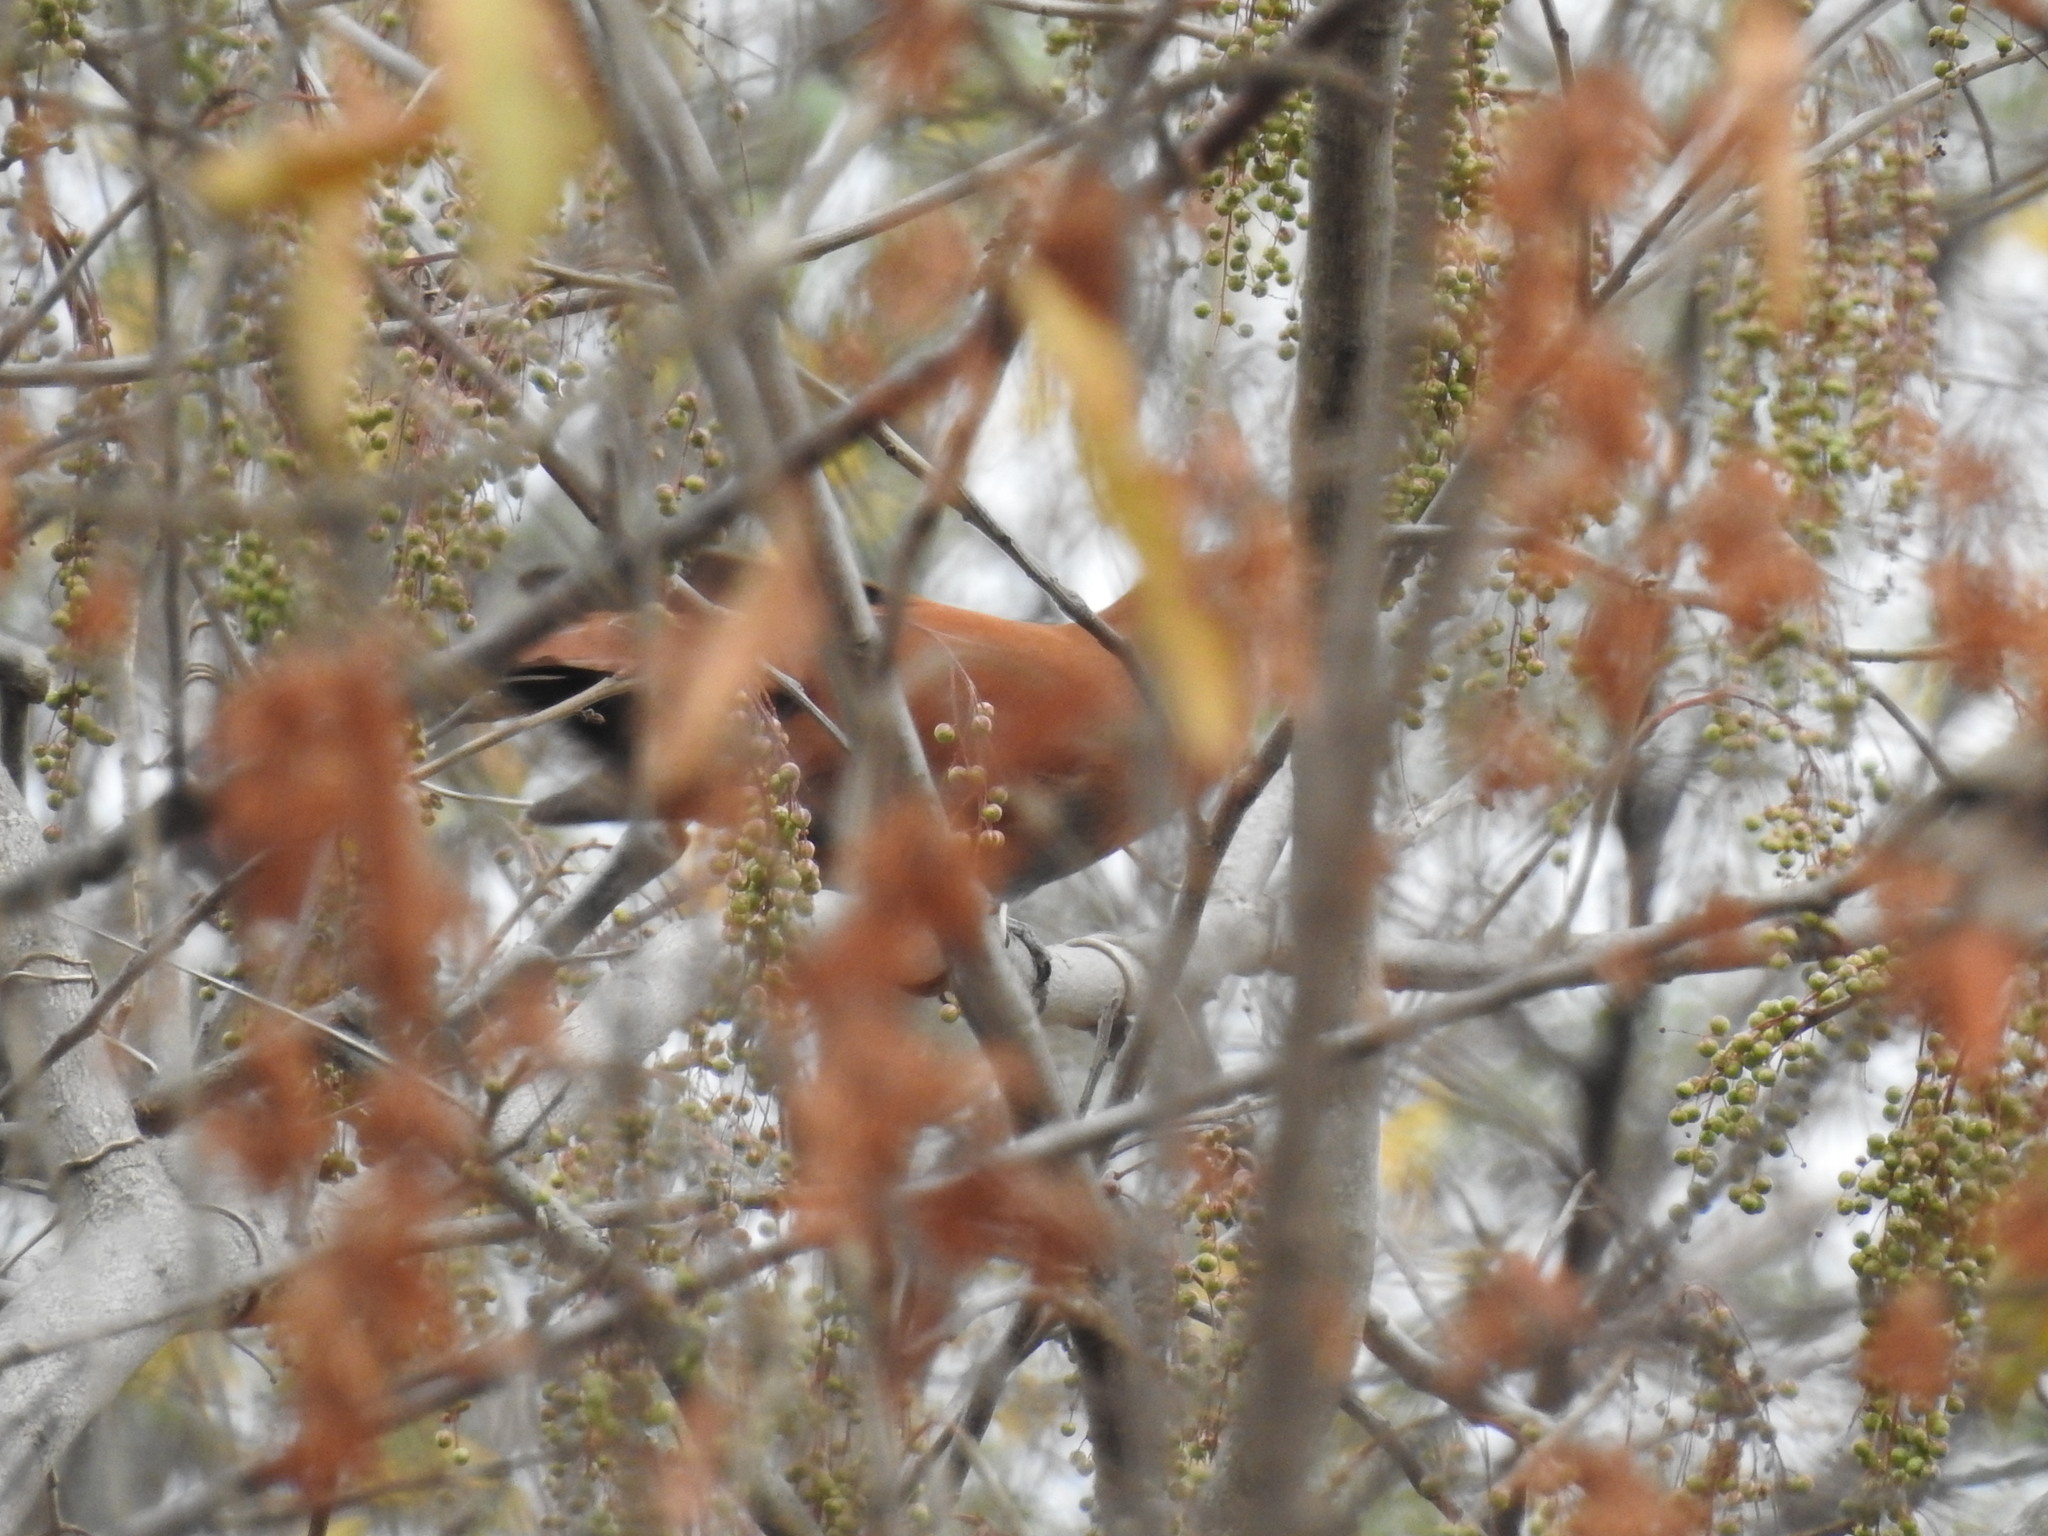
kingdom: Animalia
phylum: Chordata
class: Aves
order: Cuculiformes
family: Cuculidae
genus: Piaya
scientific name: Piaya cayana
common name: Squirrel cuckoo
